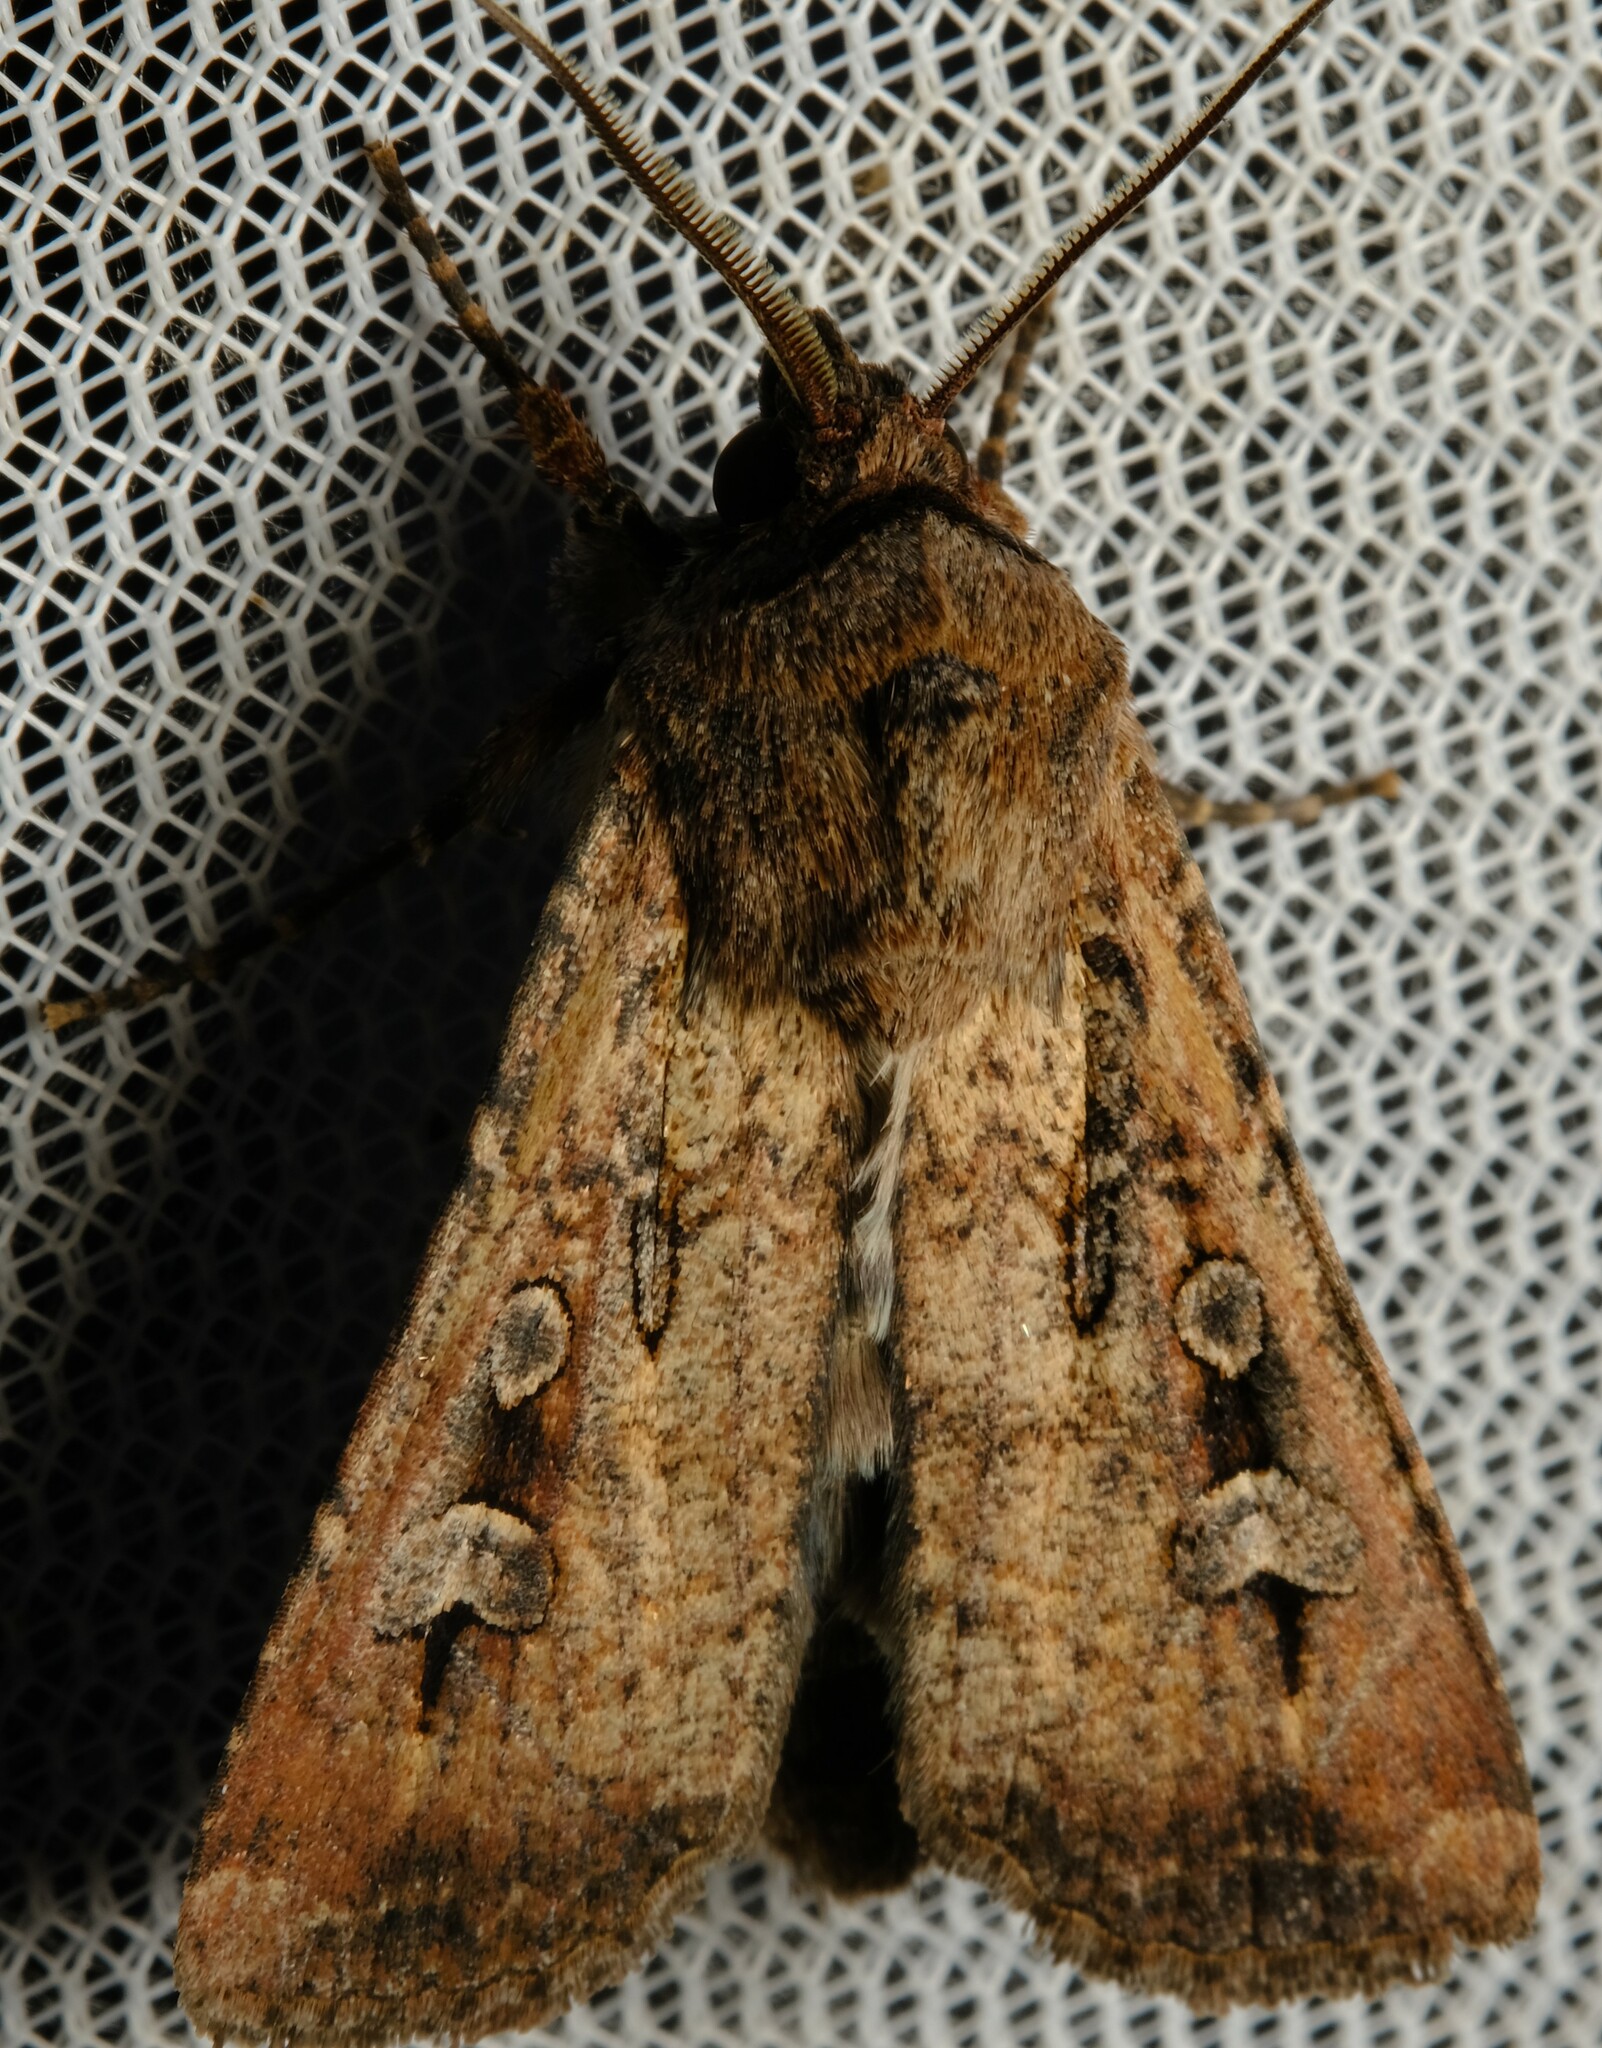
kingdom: Animalia
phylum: Arthropoda
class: Insecta
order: Lepidoptera
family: Noctuidae
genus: Agrotis
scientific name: Agrotis infusa
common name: Bogong moth
